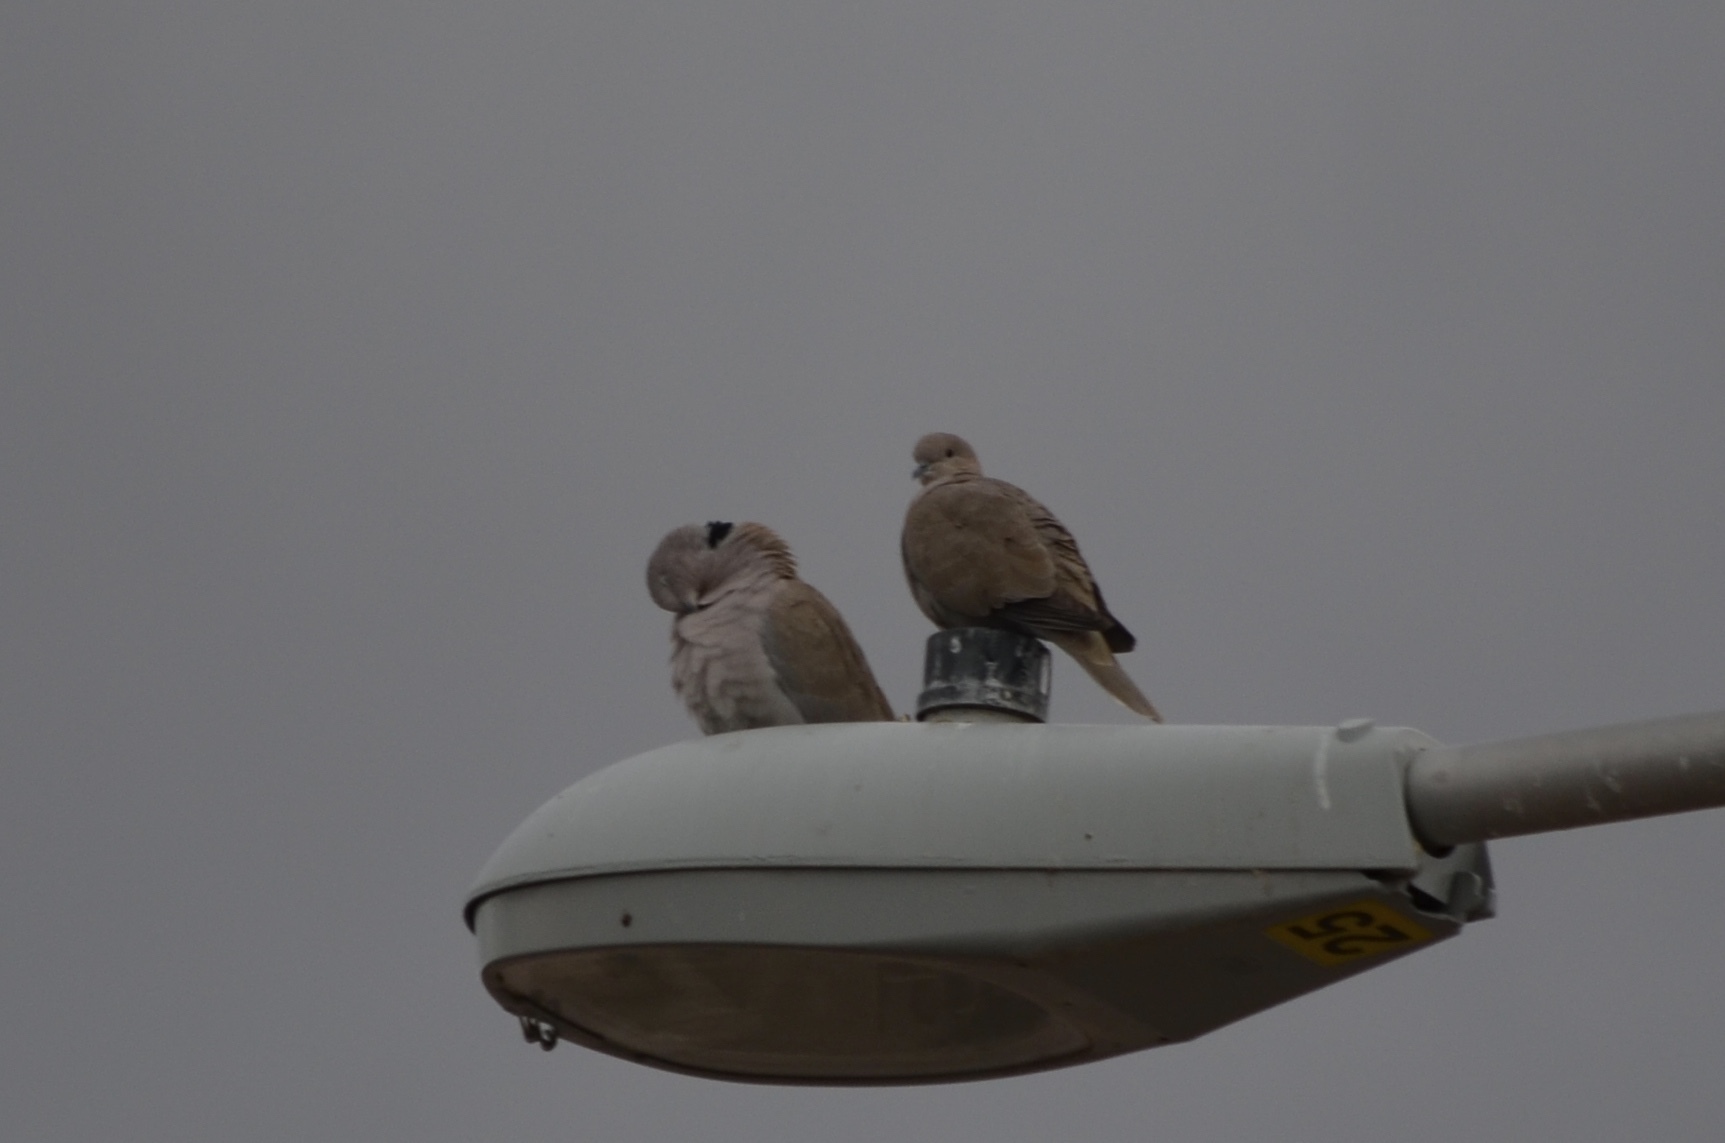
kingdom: Animalia
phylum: Chordata
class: Aves
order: Columbiformes
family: Columbidae
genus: Streptopelia
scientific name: Streptopelia decaocto
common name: Eurasian collared dove
